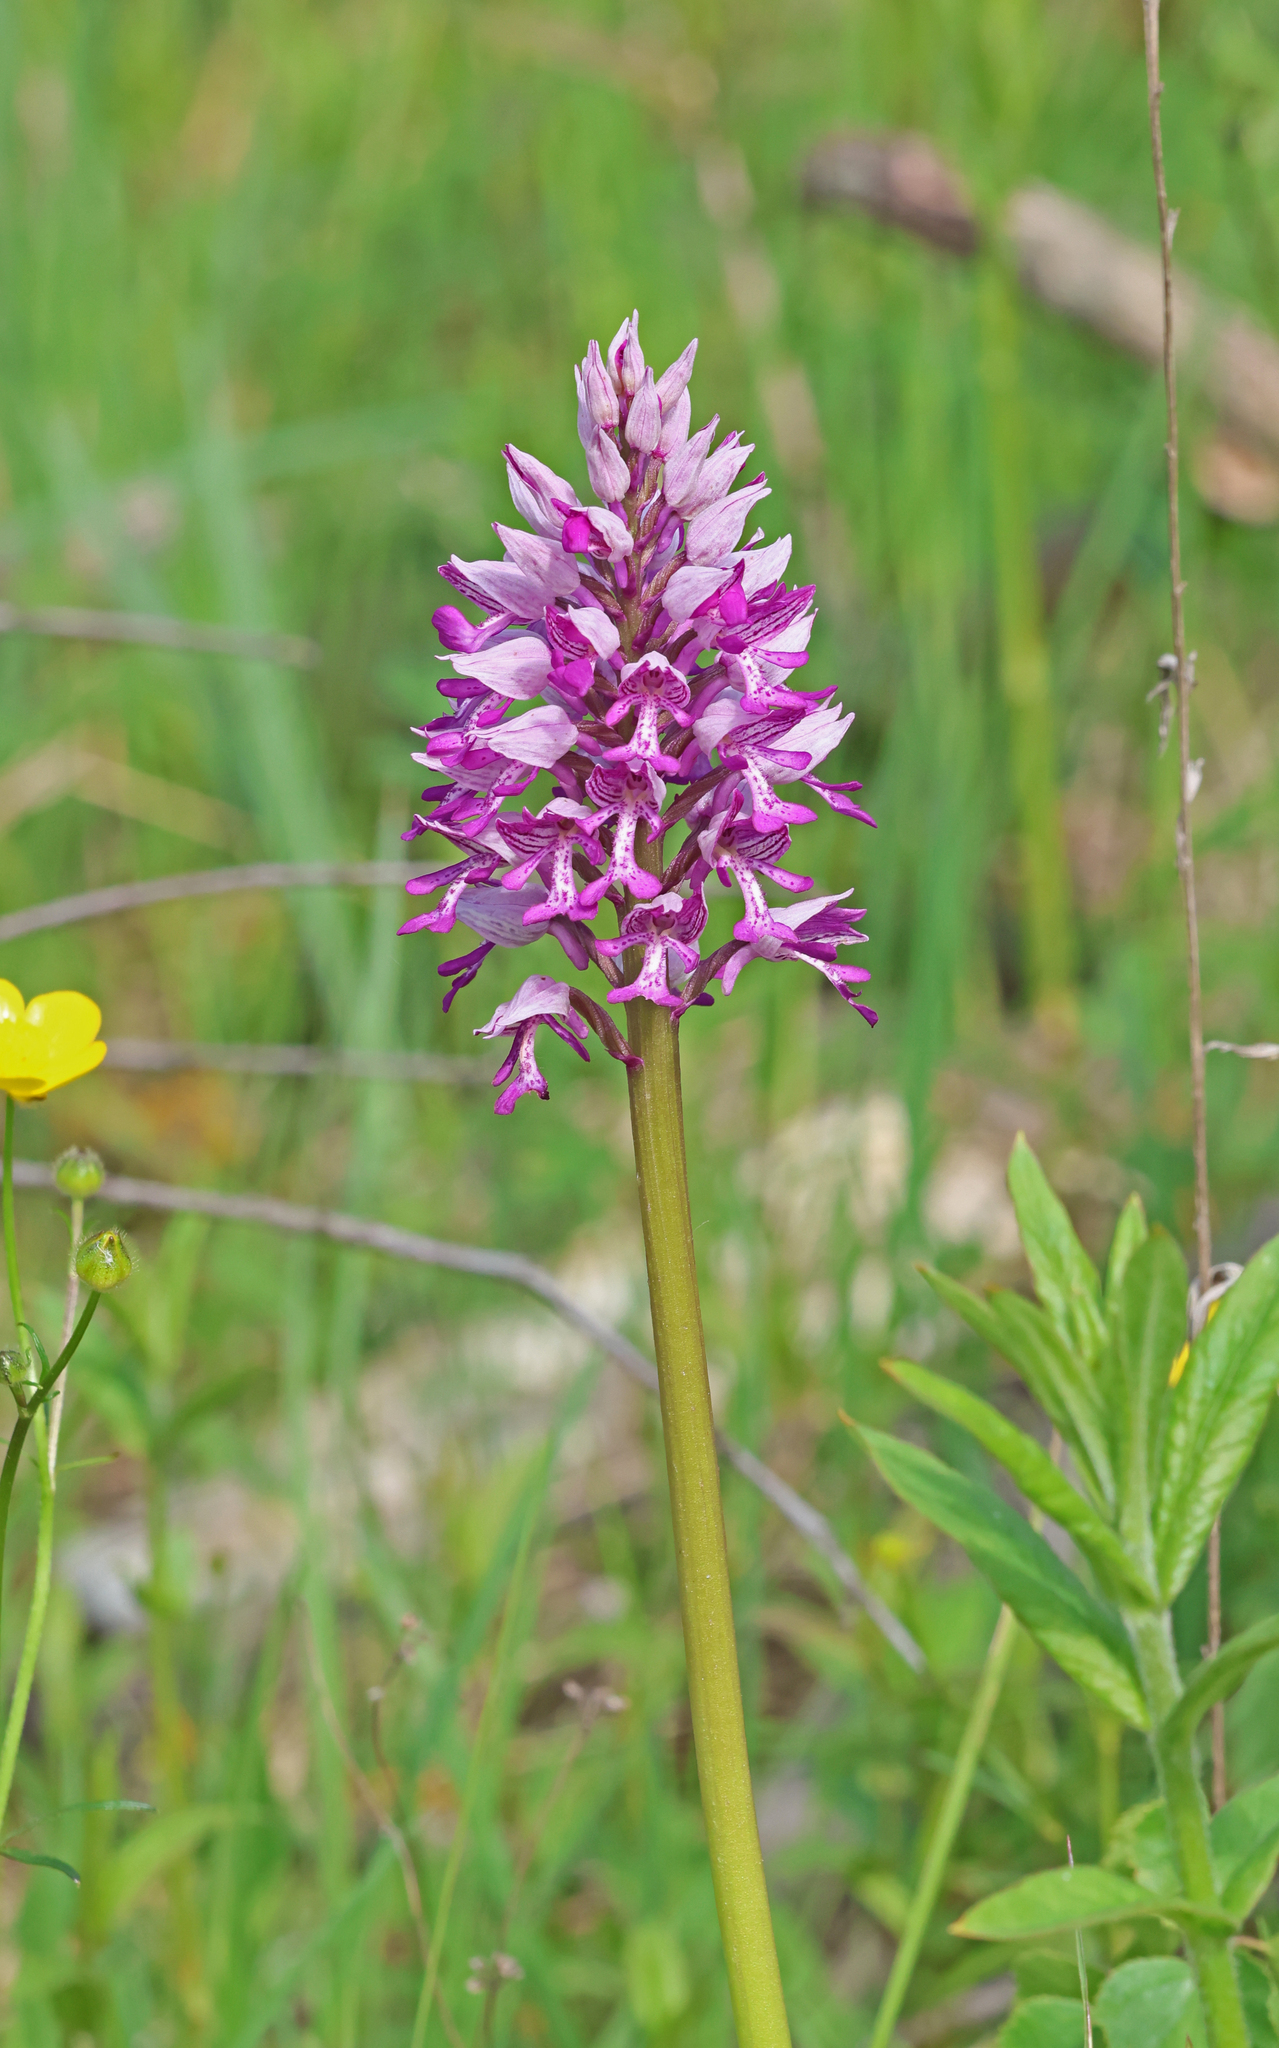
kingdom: Plantae
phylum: Tracheophyta
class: Liliopsida
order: Asparagales
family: Orchidaceae
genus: Orchis
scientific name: Orchis militaris
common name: Military orchid
